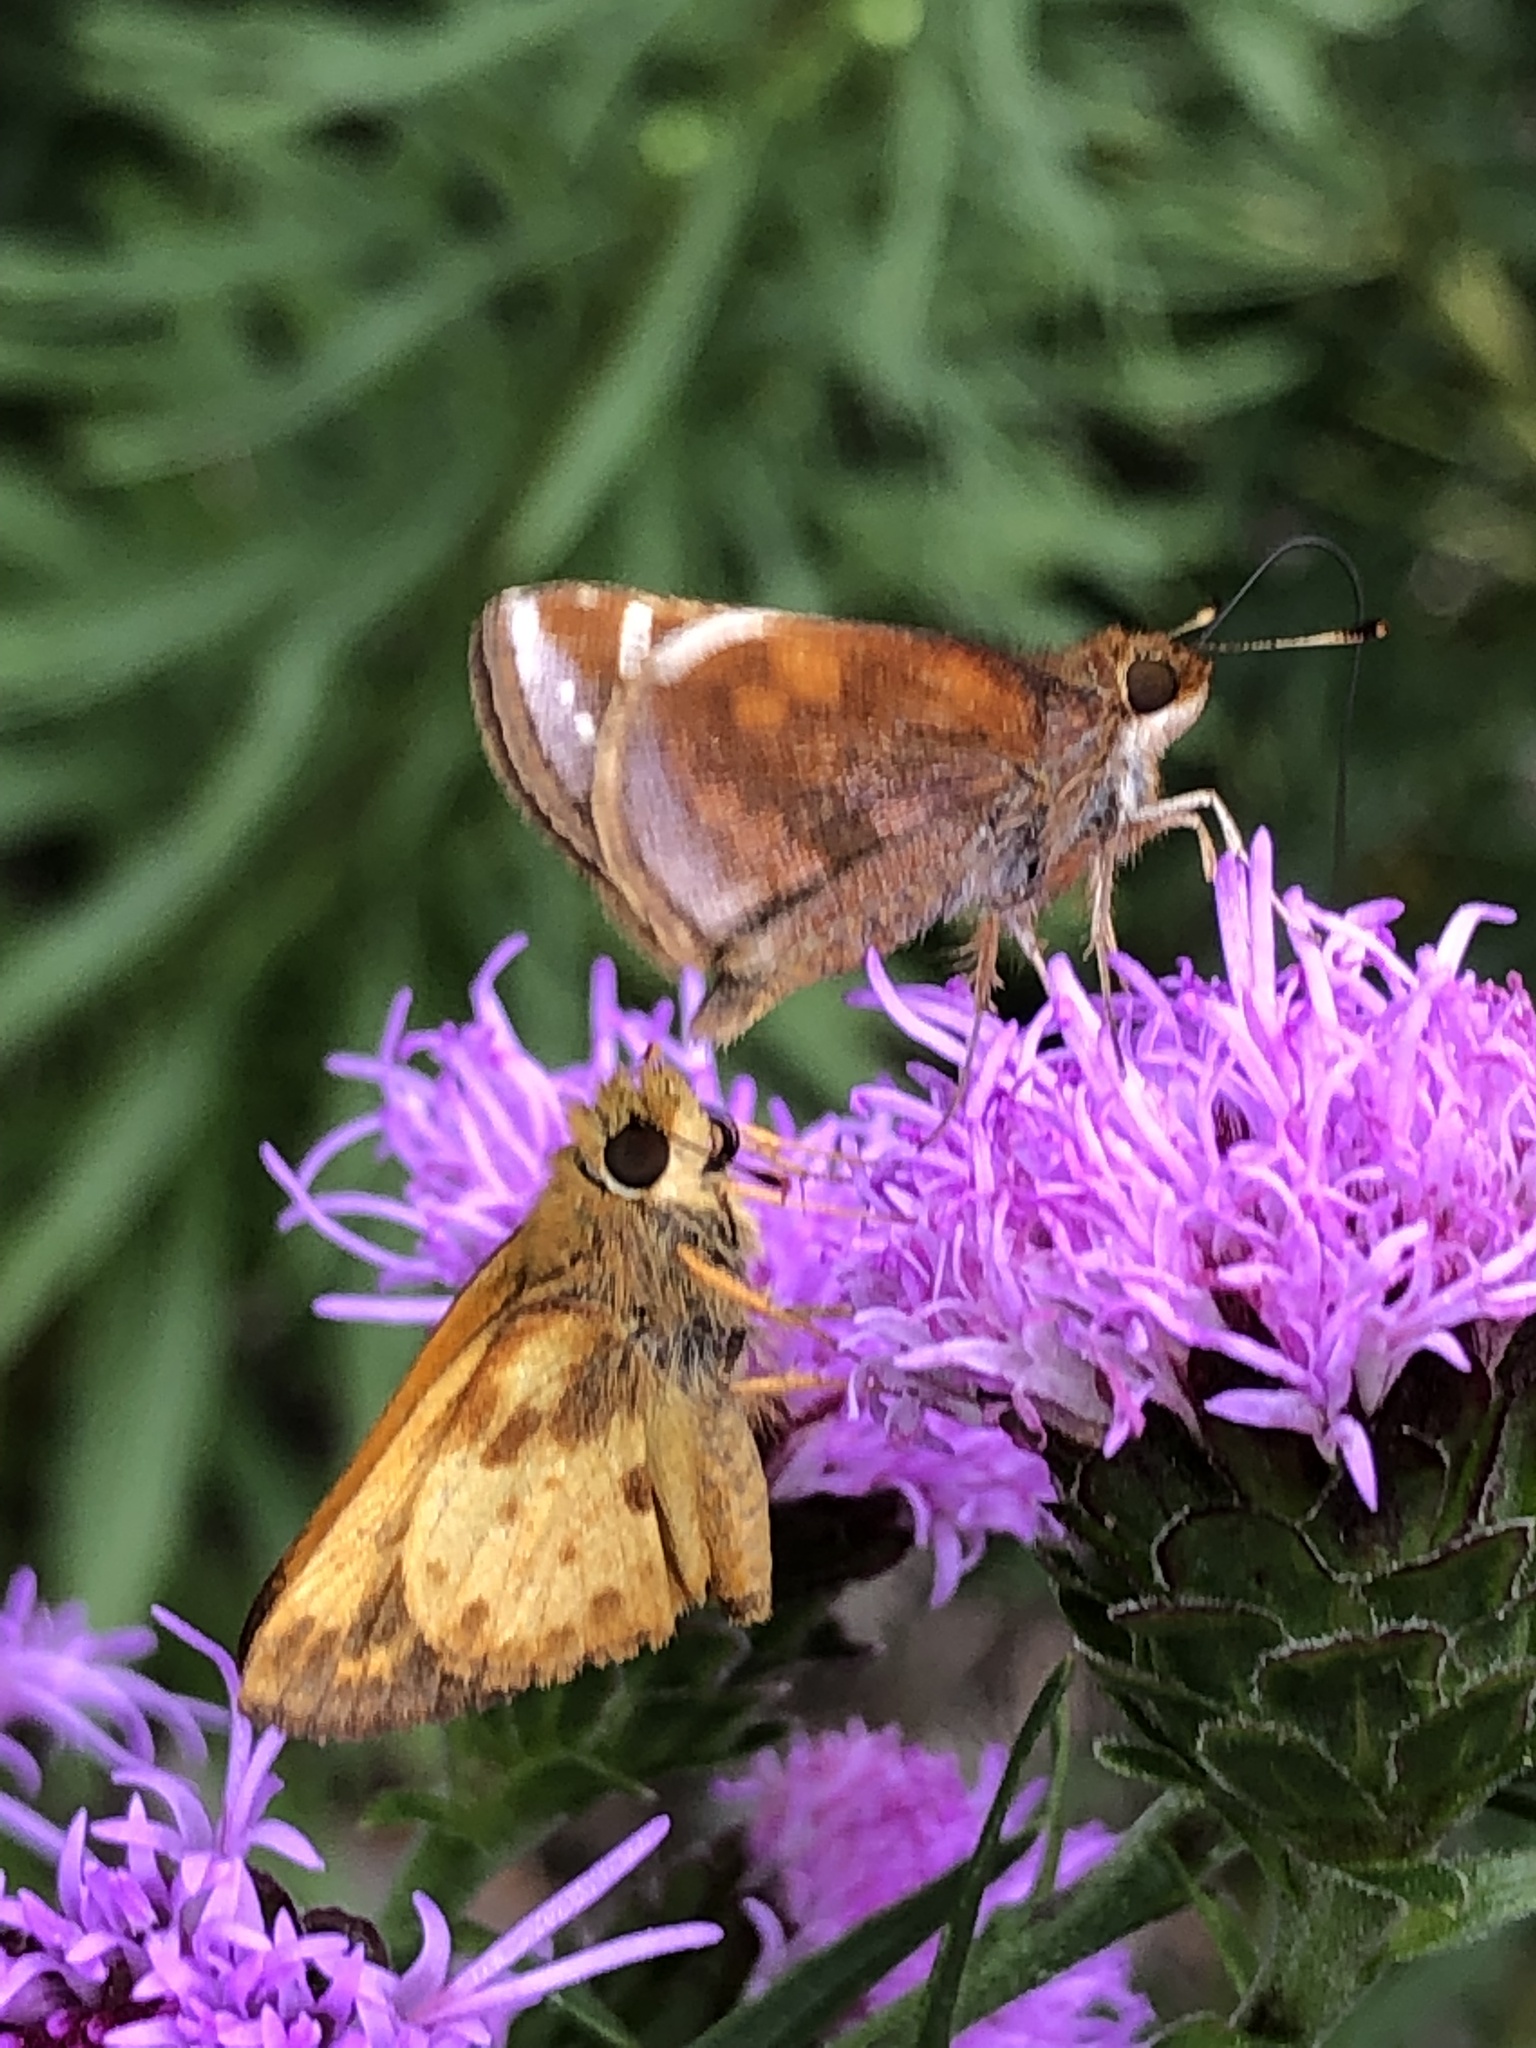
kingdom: Animalia
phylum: Arthropoda
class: Insecta
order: Lepidoptera
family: Hesperiidae
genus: Lon
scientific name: Lon zabulon
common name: Zabulon skipper
